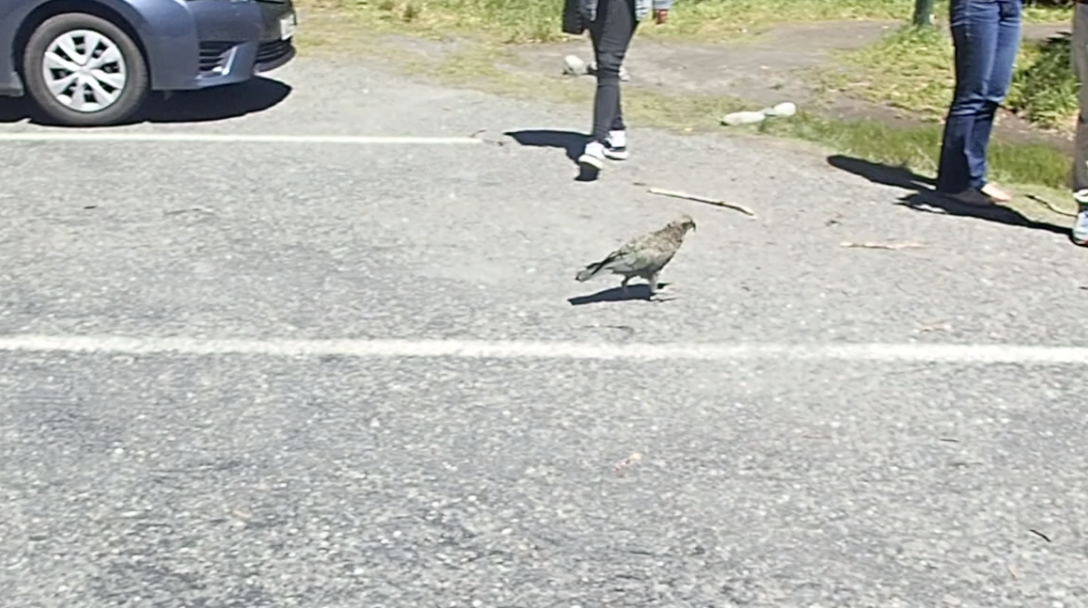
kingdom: Animalia
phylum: Chordata
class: Aves
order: Psittaciformes
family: Psittacidae
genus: Nestor
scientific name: Nestor notabilis
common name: Kea
